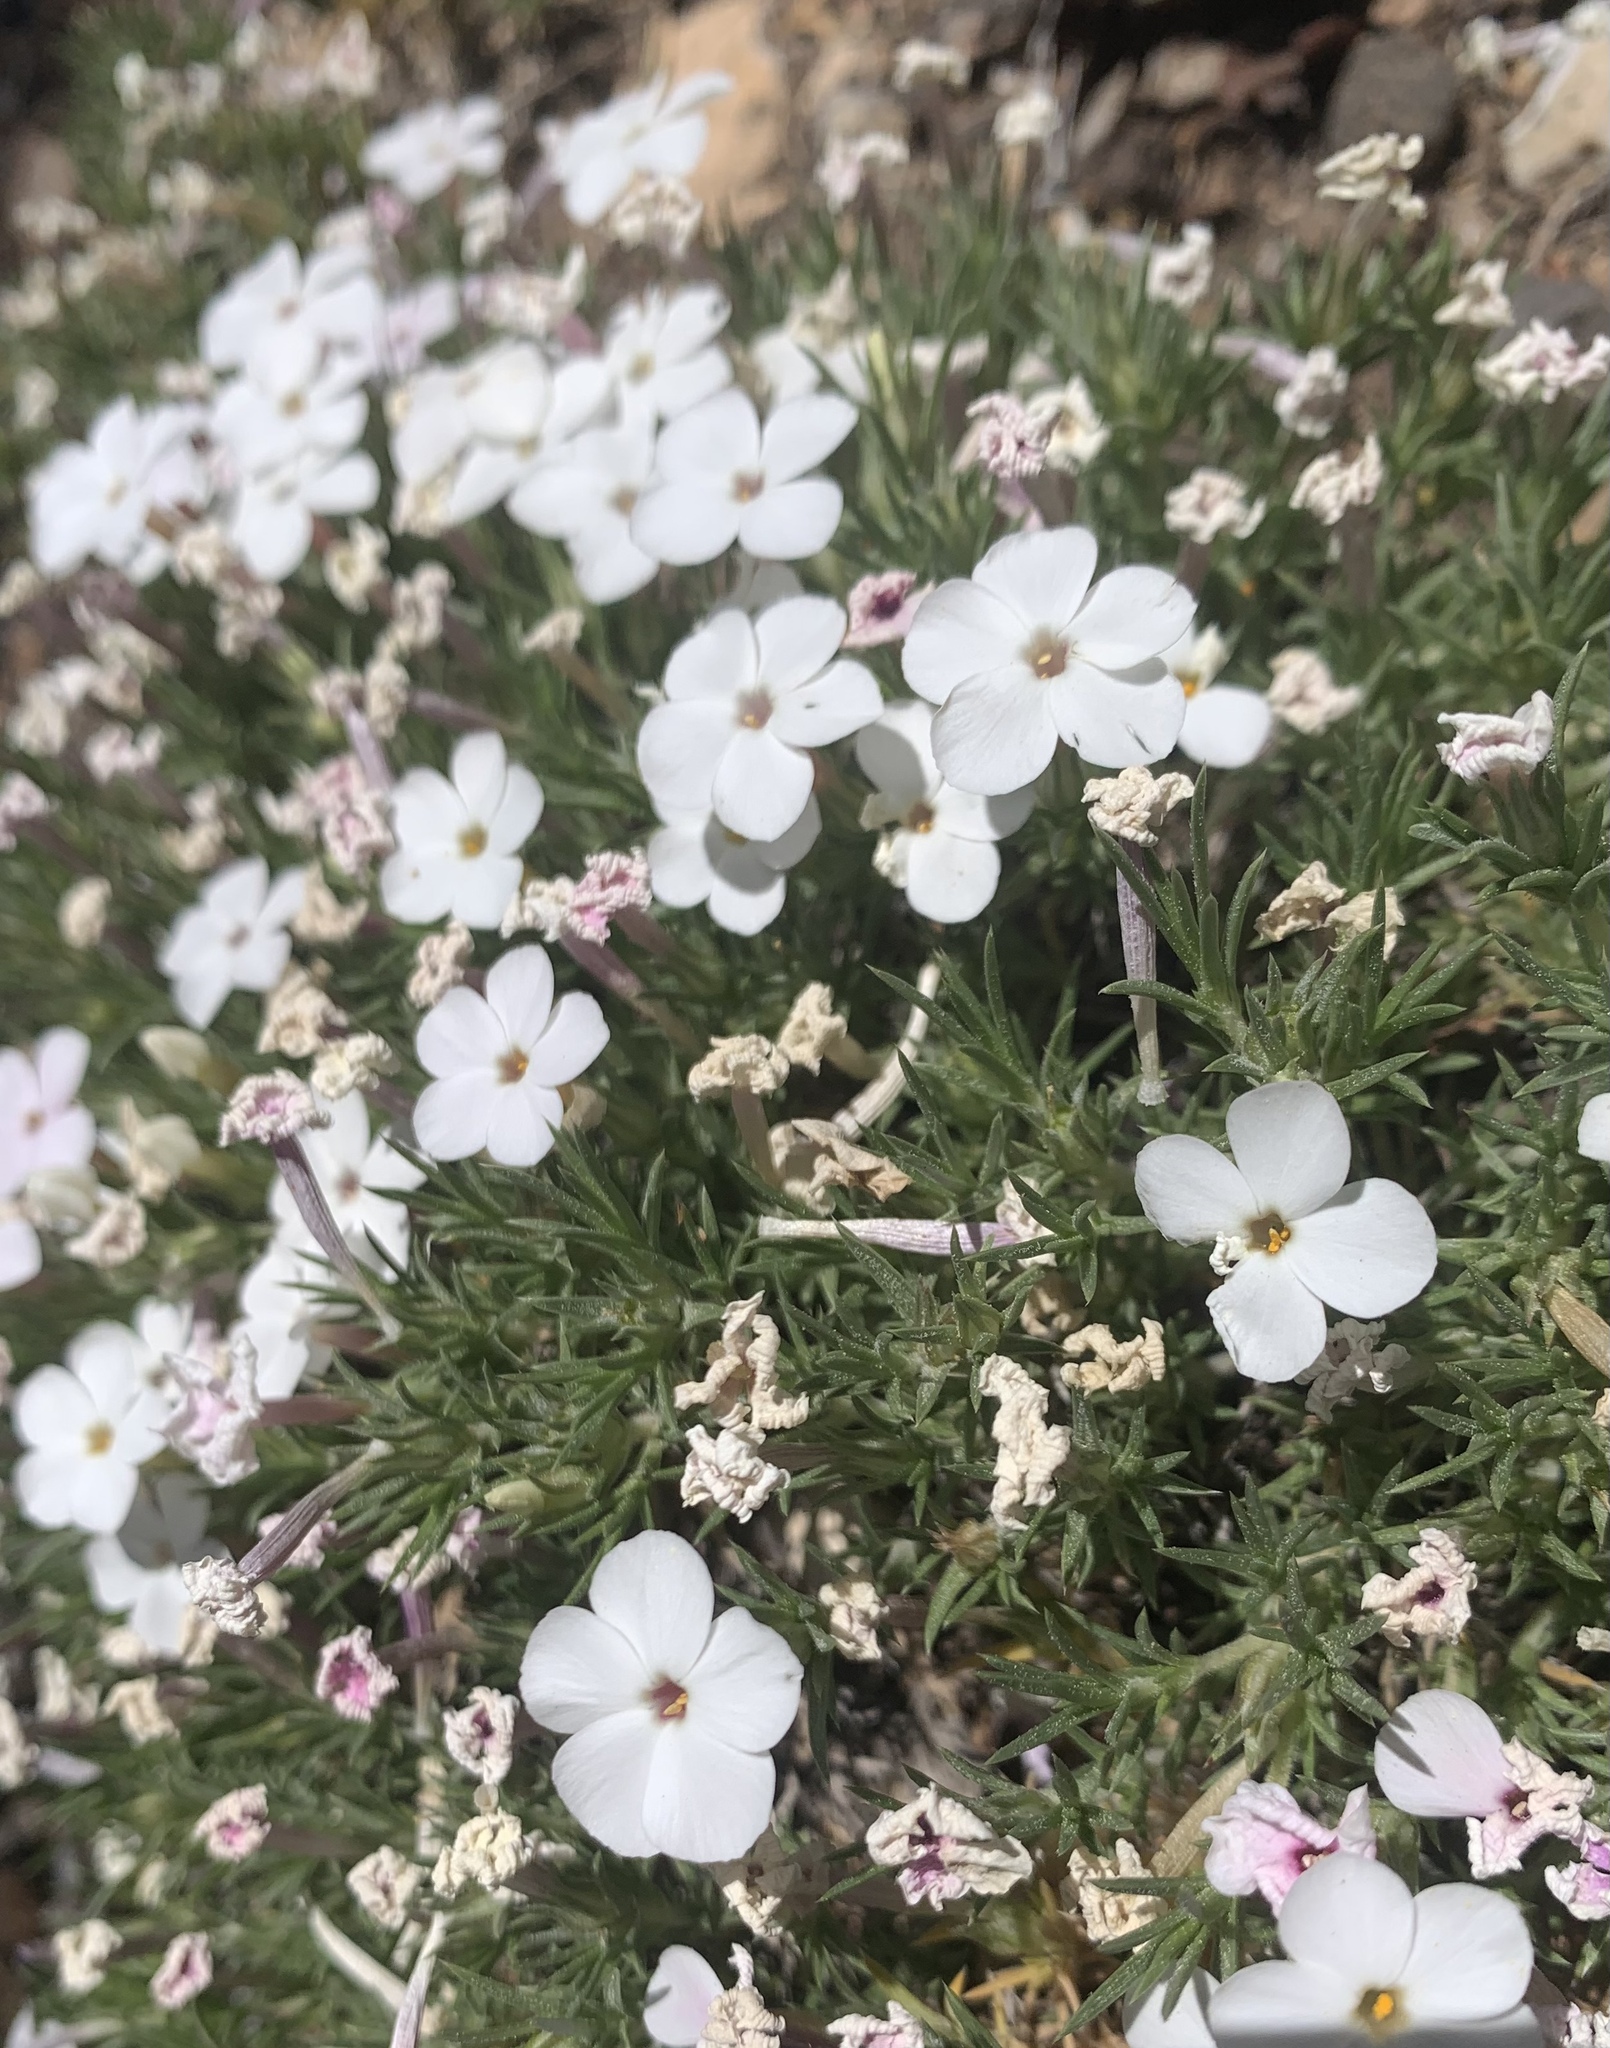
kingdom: Plantae
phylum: Tracheophyta
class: Magnoliopsida
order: Ericales
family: Polemoniaceae
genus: Phlox
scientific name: Phlox austromontana
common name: Desert phlox
